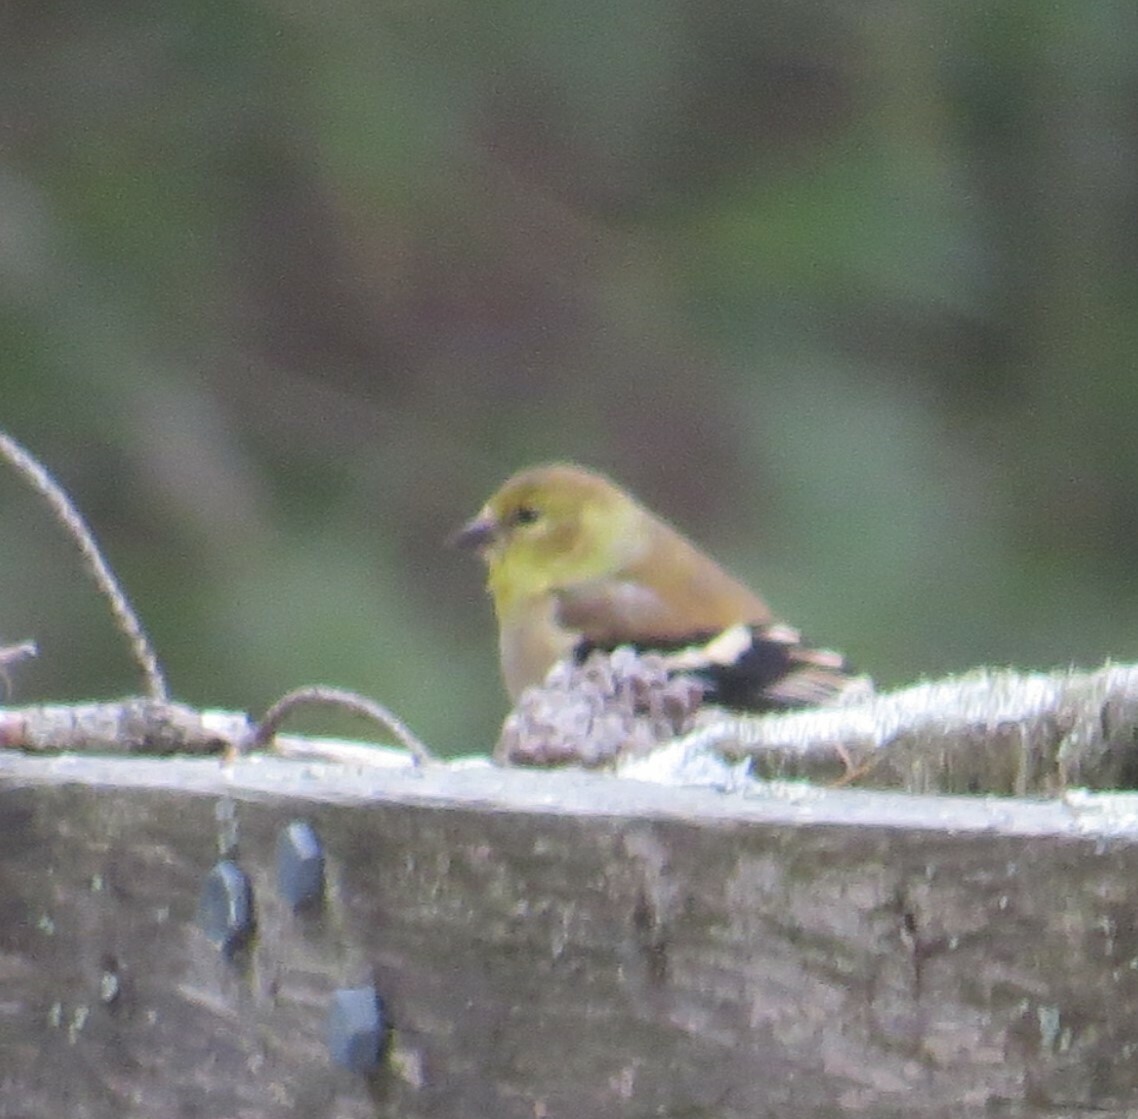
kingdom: Animalia
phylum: Chordata
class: Aves
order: Passeriformes
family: Fringillidae
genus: Spinus
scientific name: Spinus tristis
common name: American goldfinch
